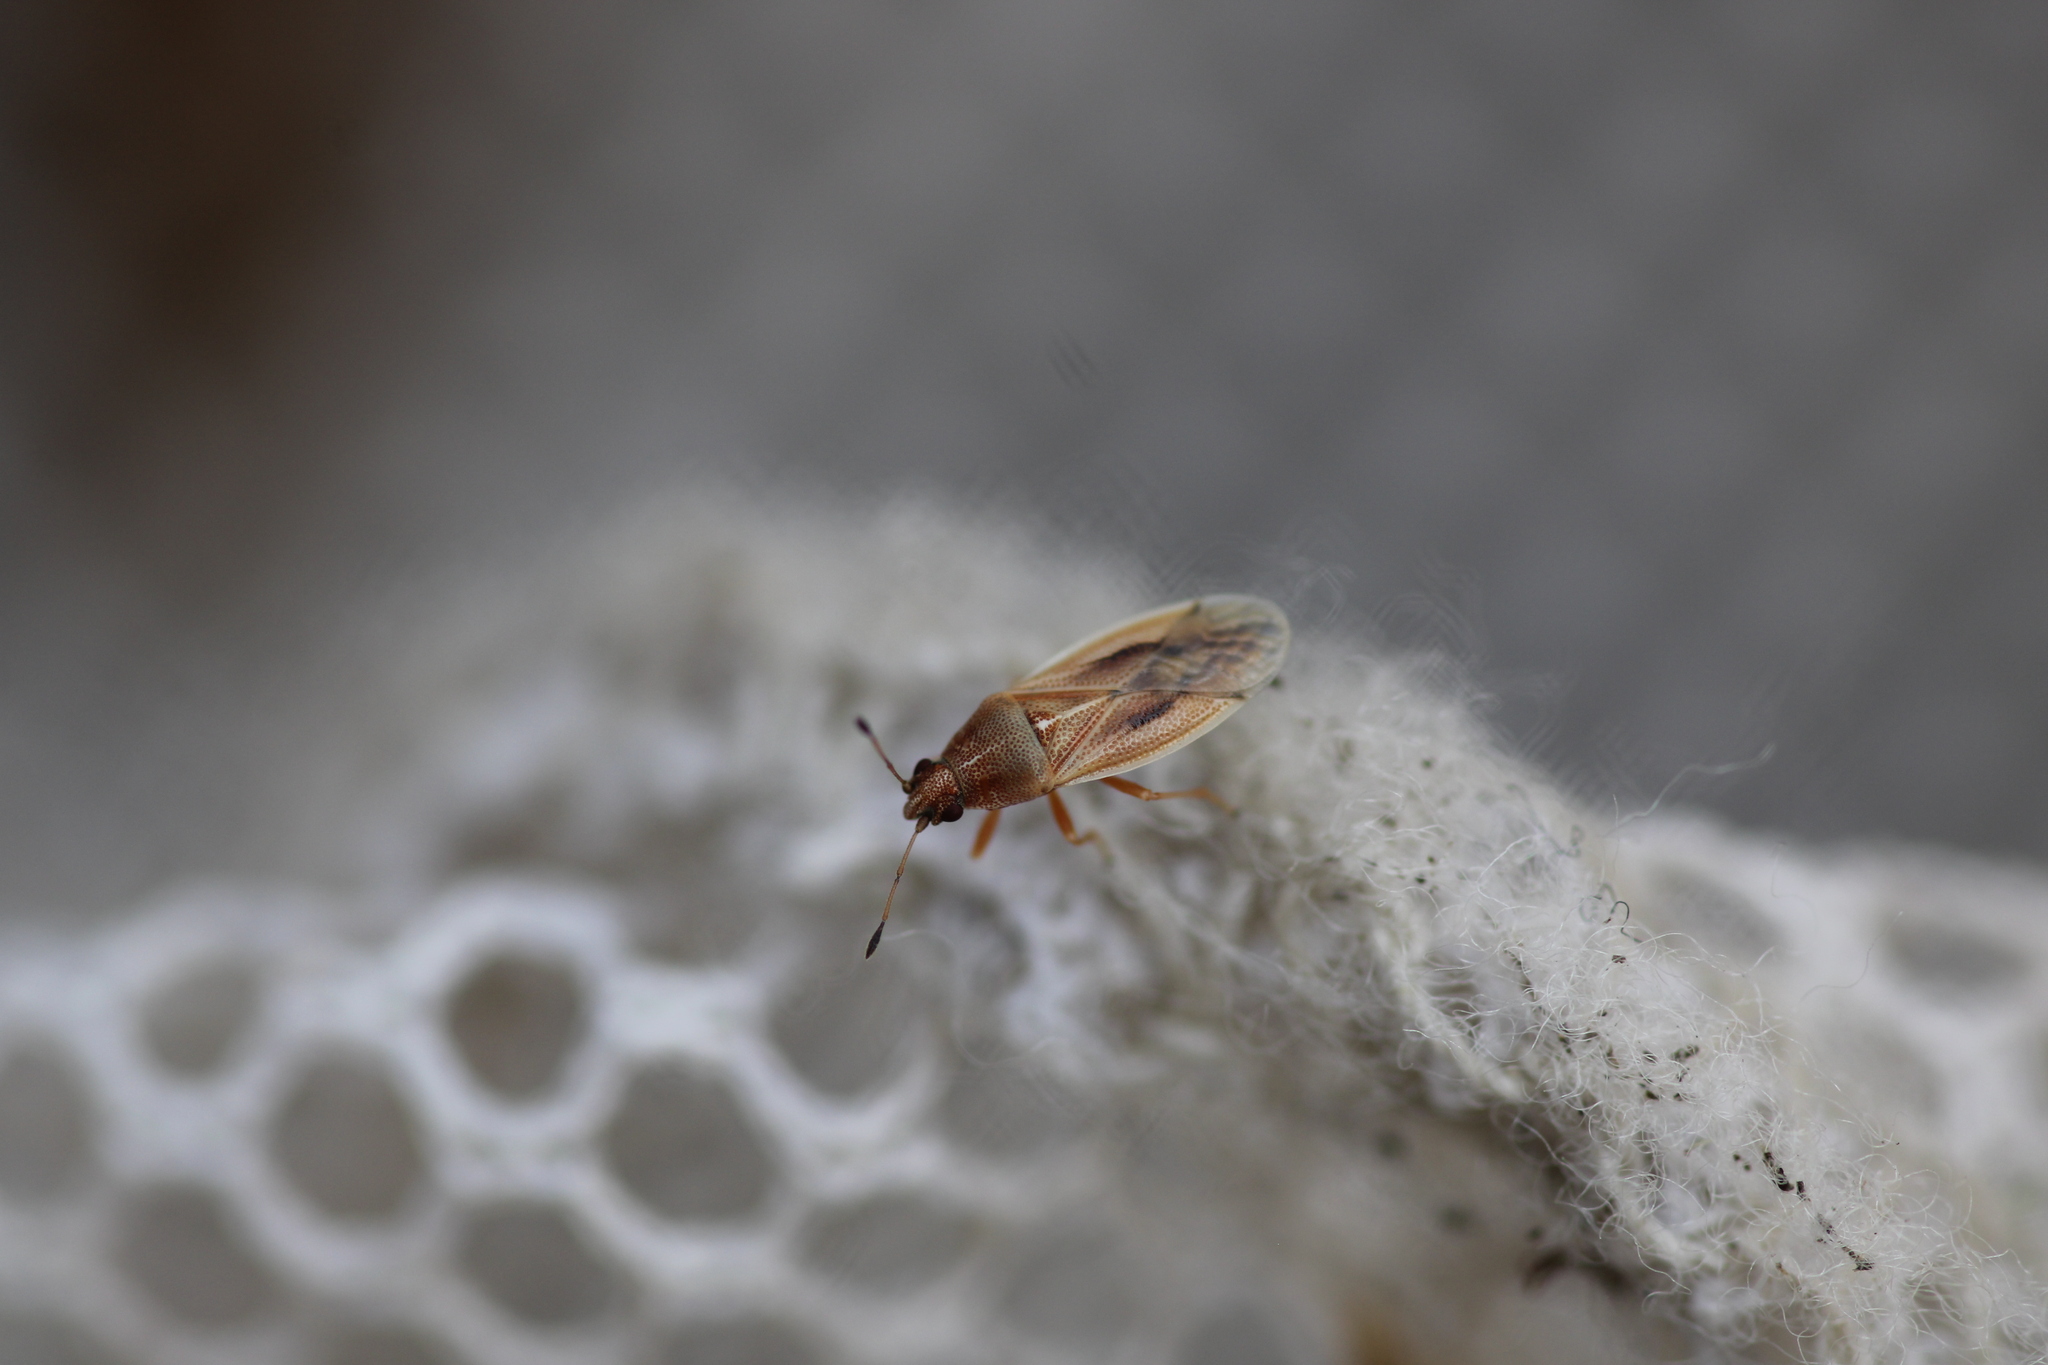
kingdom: Animalia
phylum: Arthropoda
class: Insecta
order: Hemiptera
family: Cymidae
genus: Cymus
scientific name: Cymus glandicolor
